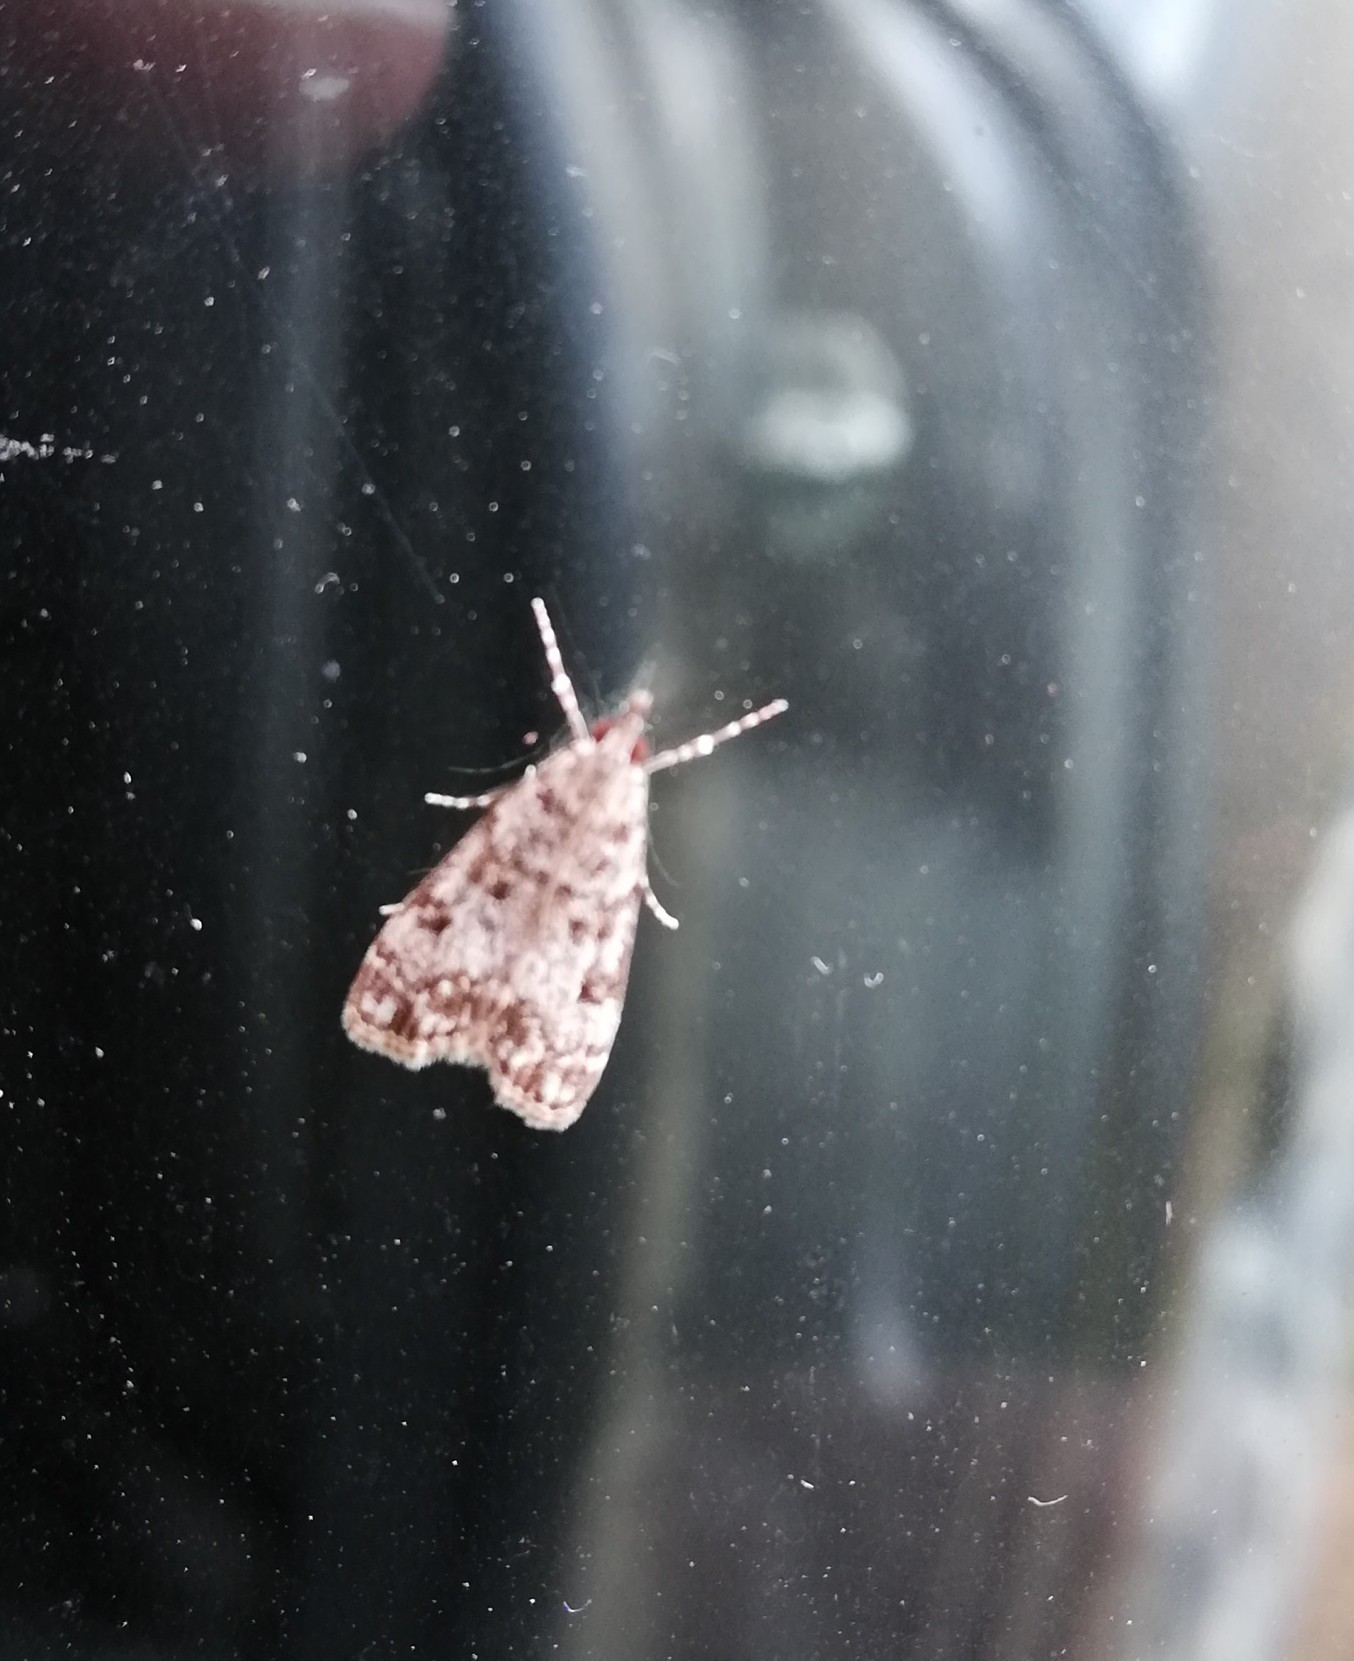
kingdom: Animalia
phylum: Arthropoda
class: Insecta
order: Lepidoptera
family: Crambidae
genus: Eudonia
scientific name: Eudonia lacustrata
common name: Little grey
